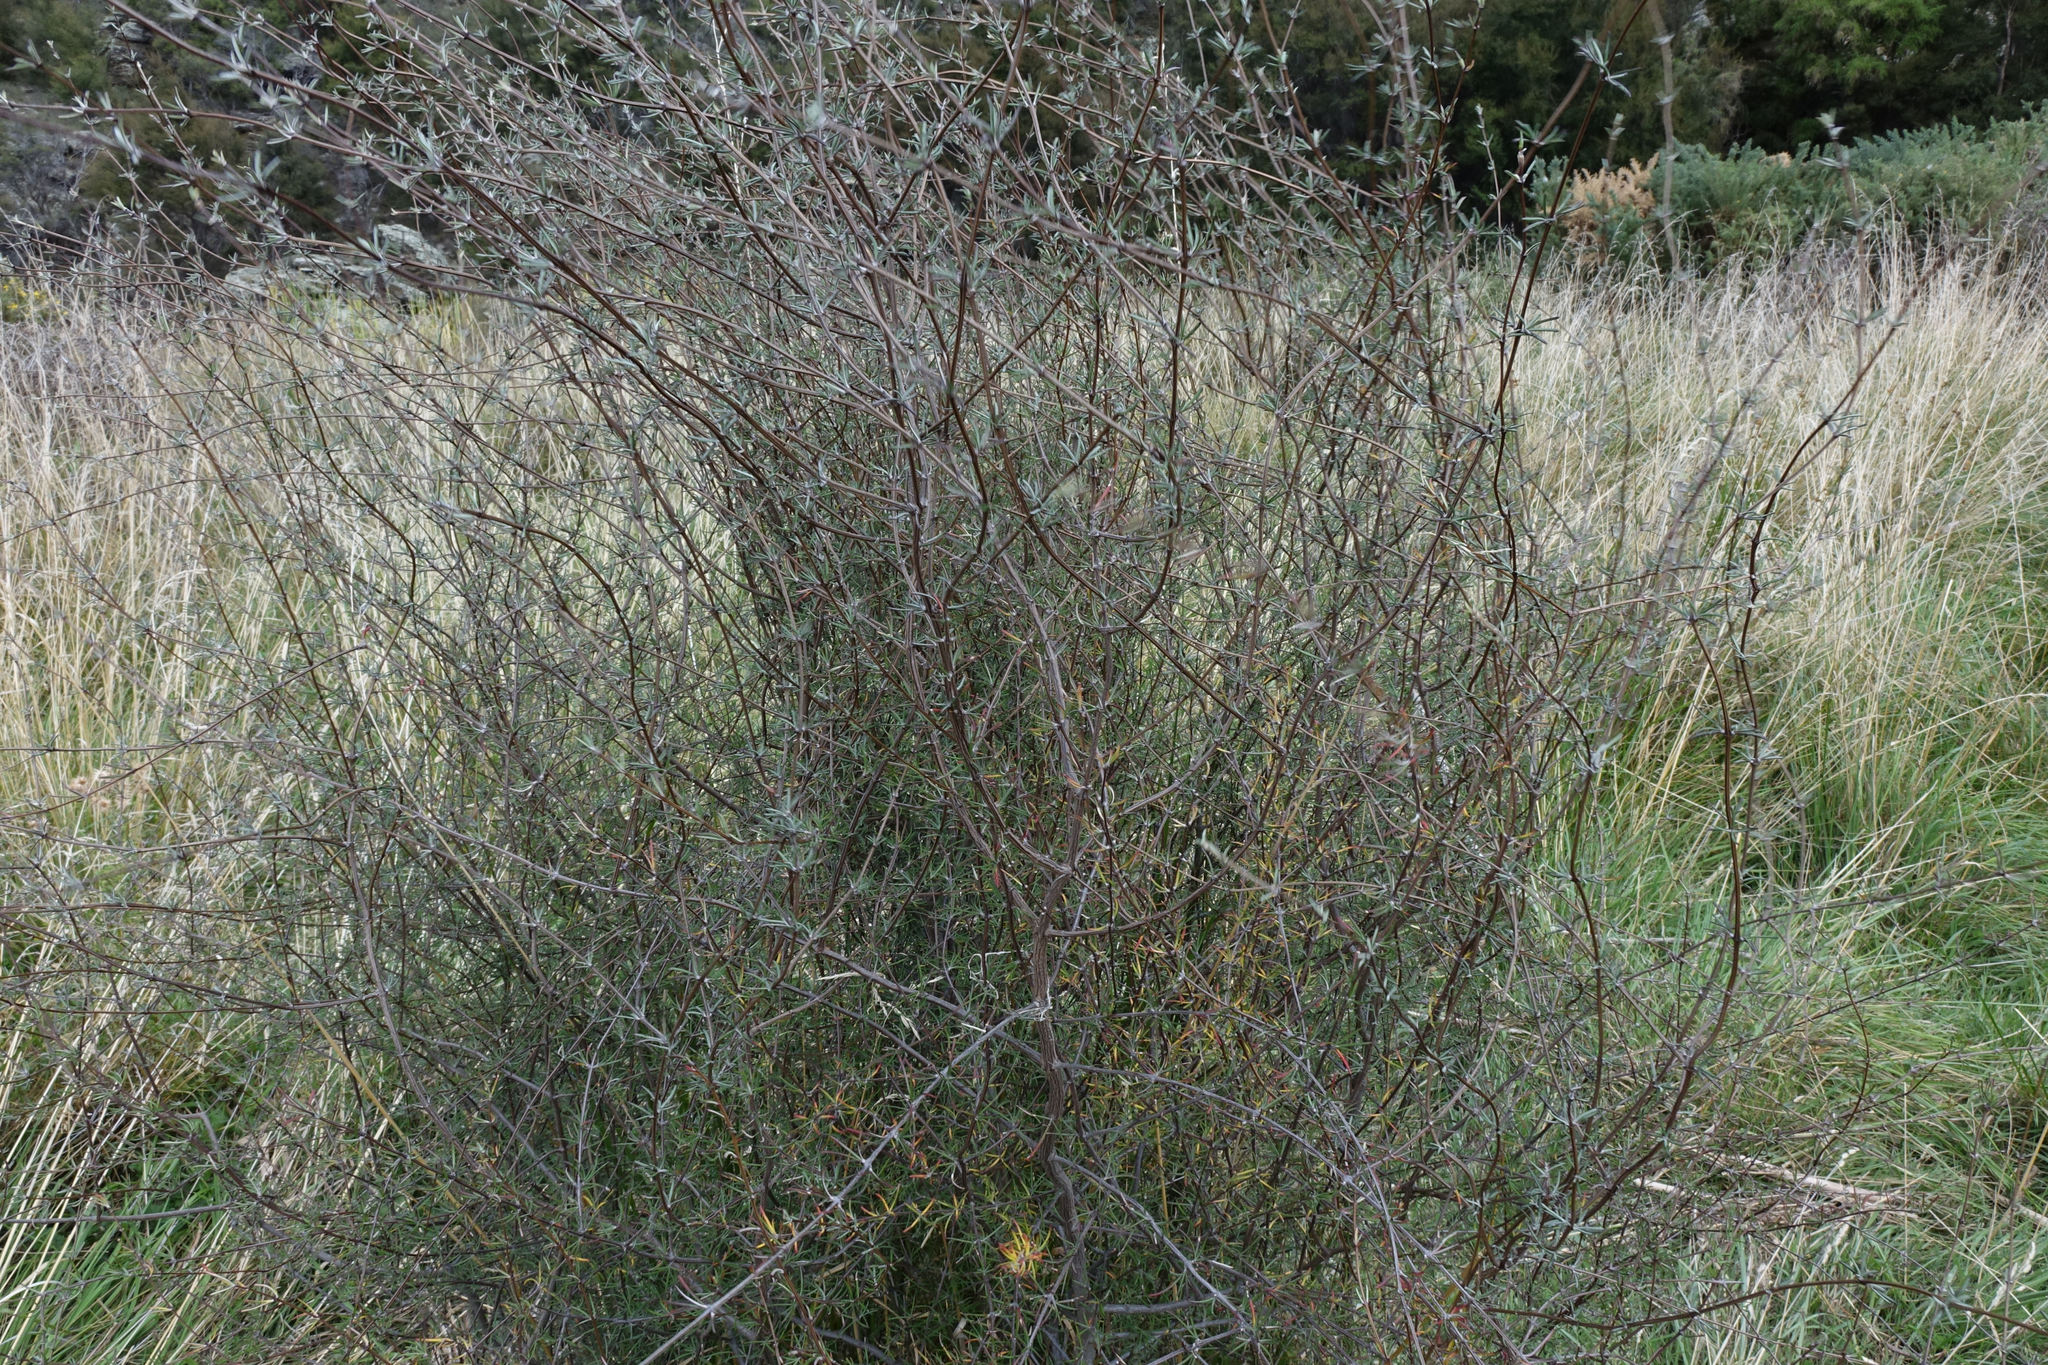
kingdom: Plantae
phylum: Tracheophyta
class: Magnoliopsida
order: Asterales
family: Asteraceae
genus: Olearia
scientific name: Olearia lineata
